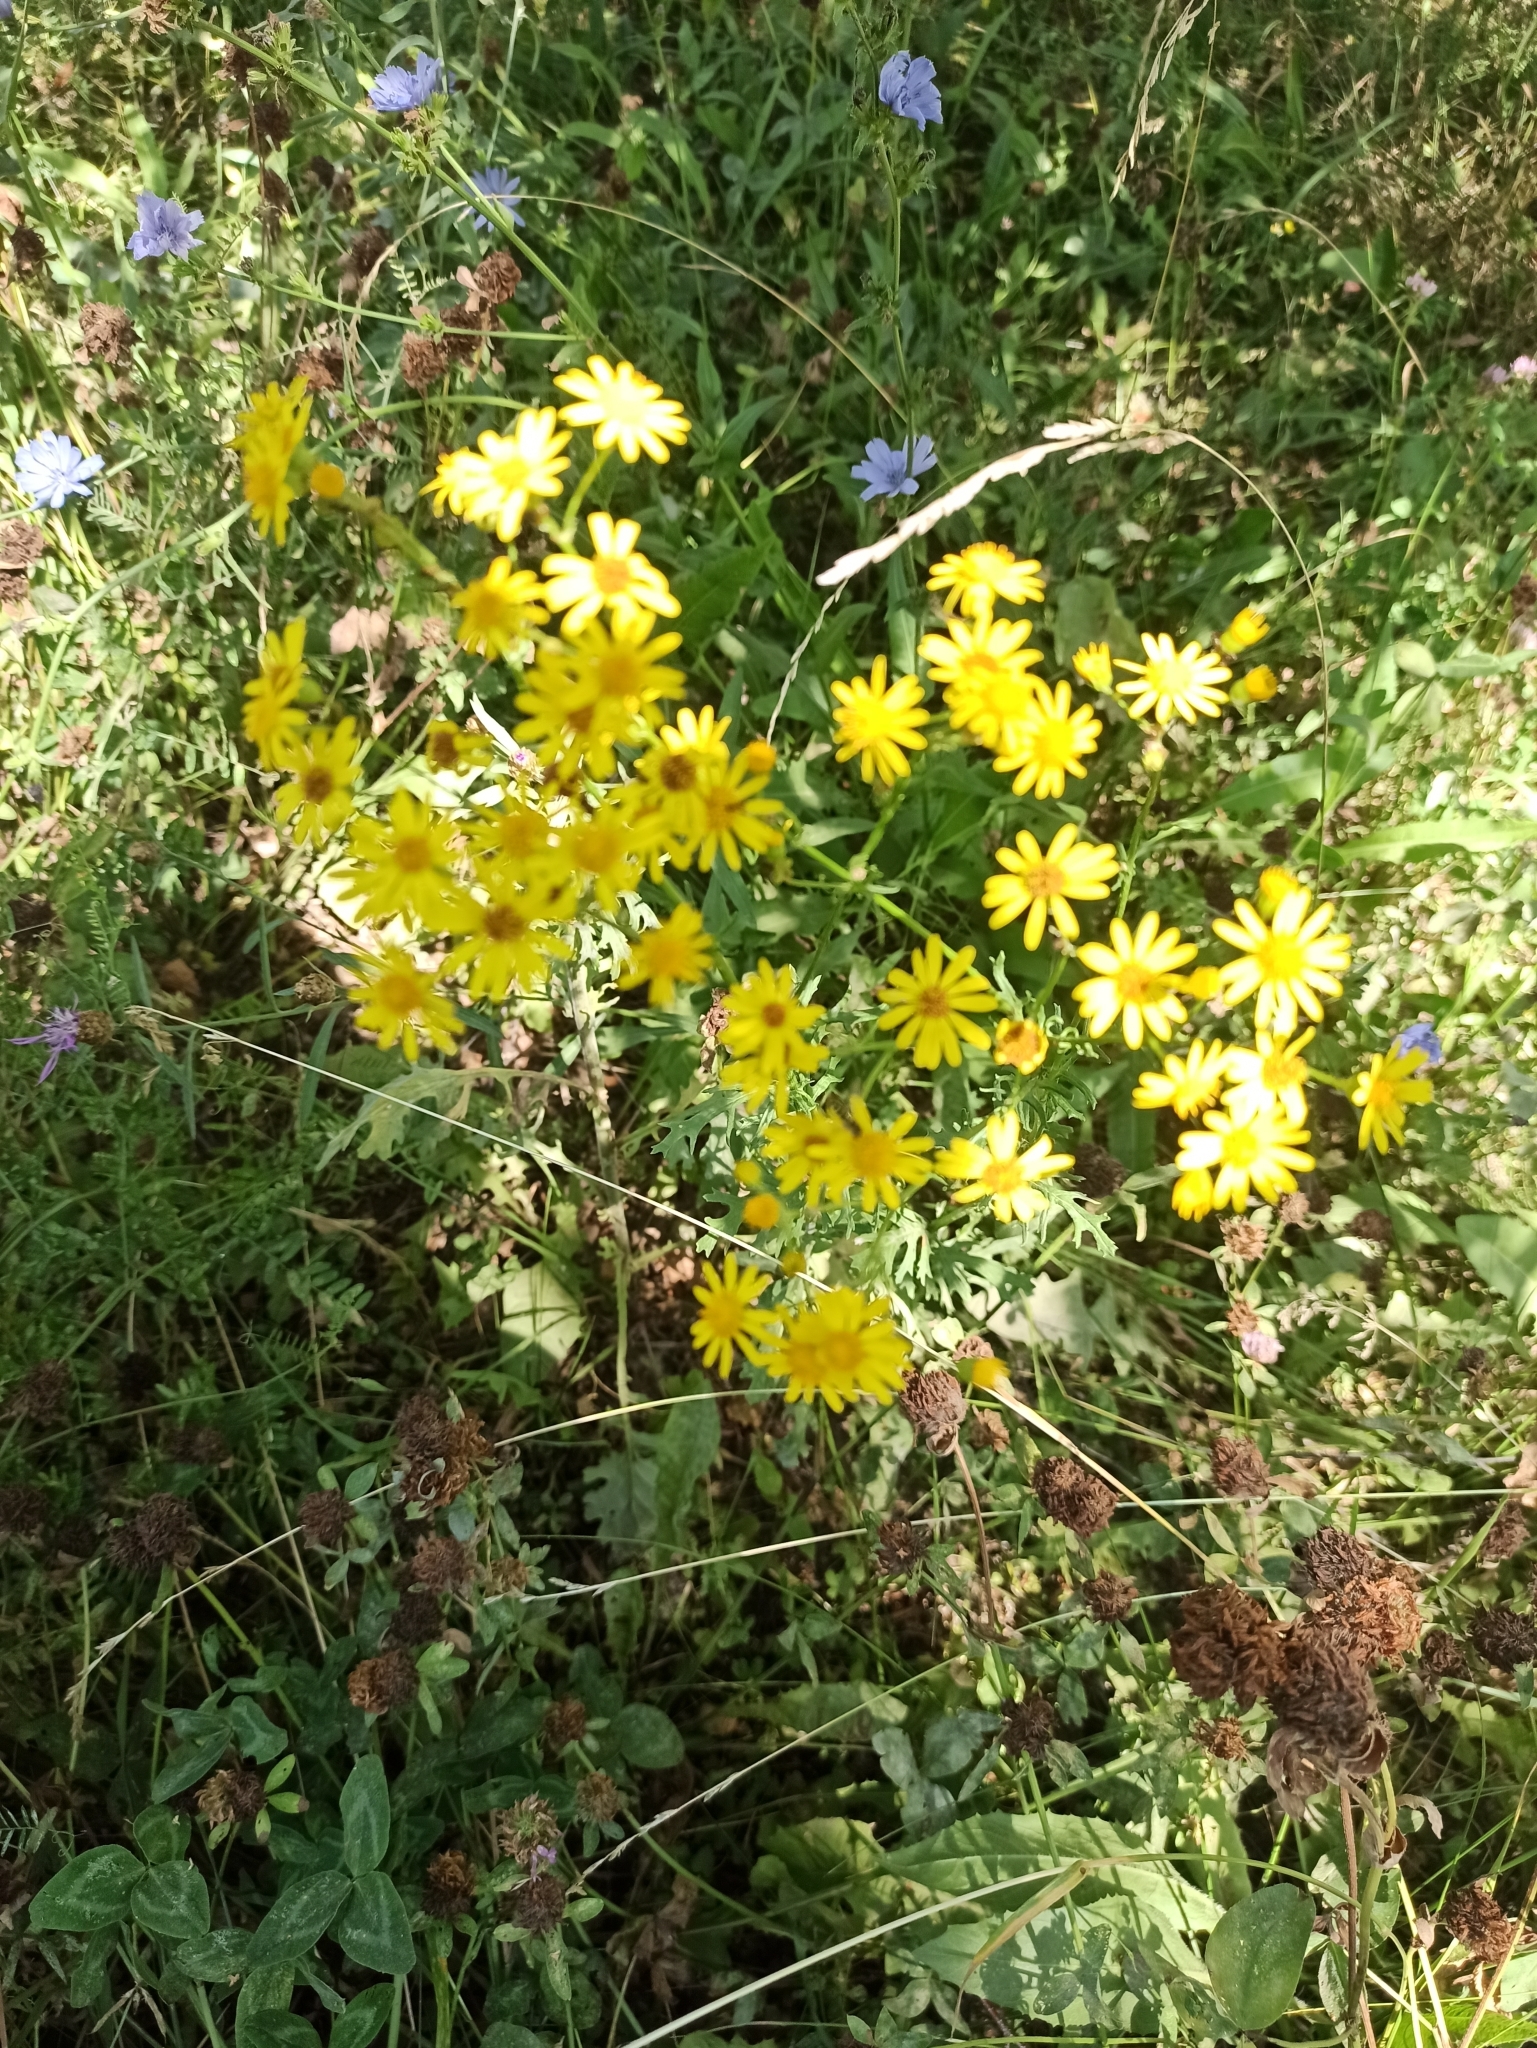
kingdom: Plantae
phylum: Tracheophyta
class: Magnoliopsida
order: Asterales
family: Asteraceae
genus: Jacobaea
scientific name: Jacobaea vulgaris
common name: Stinking willie
